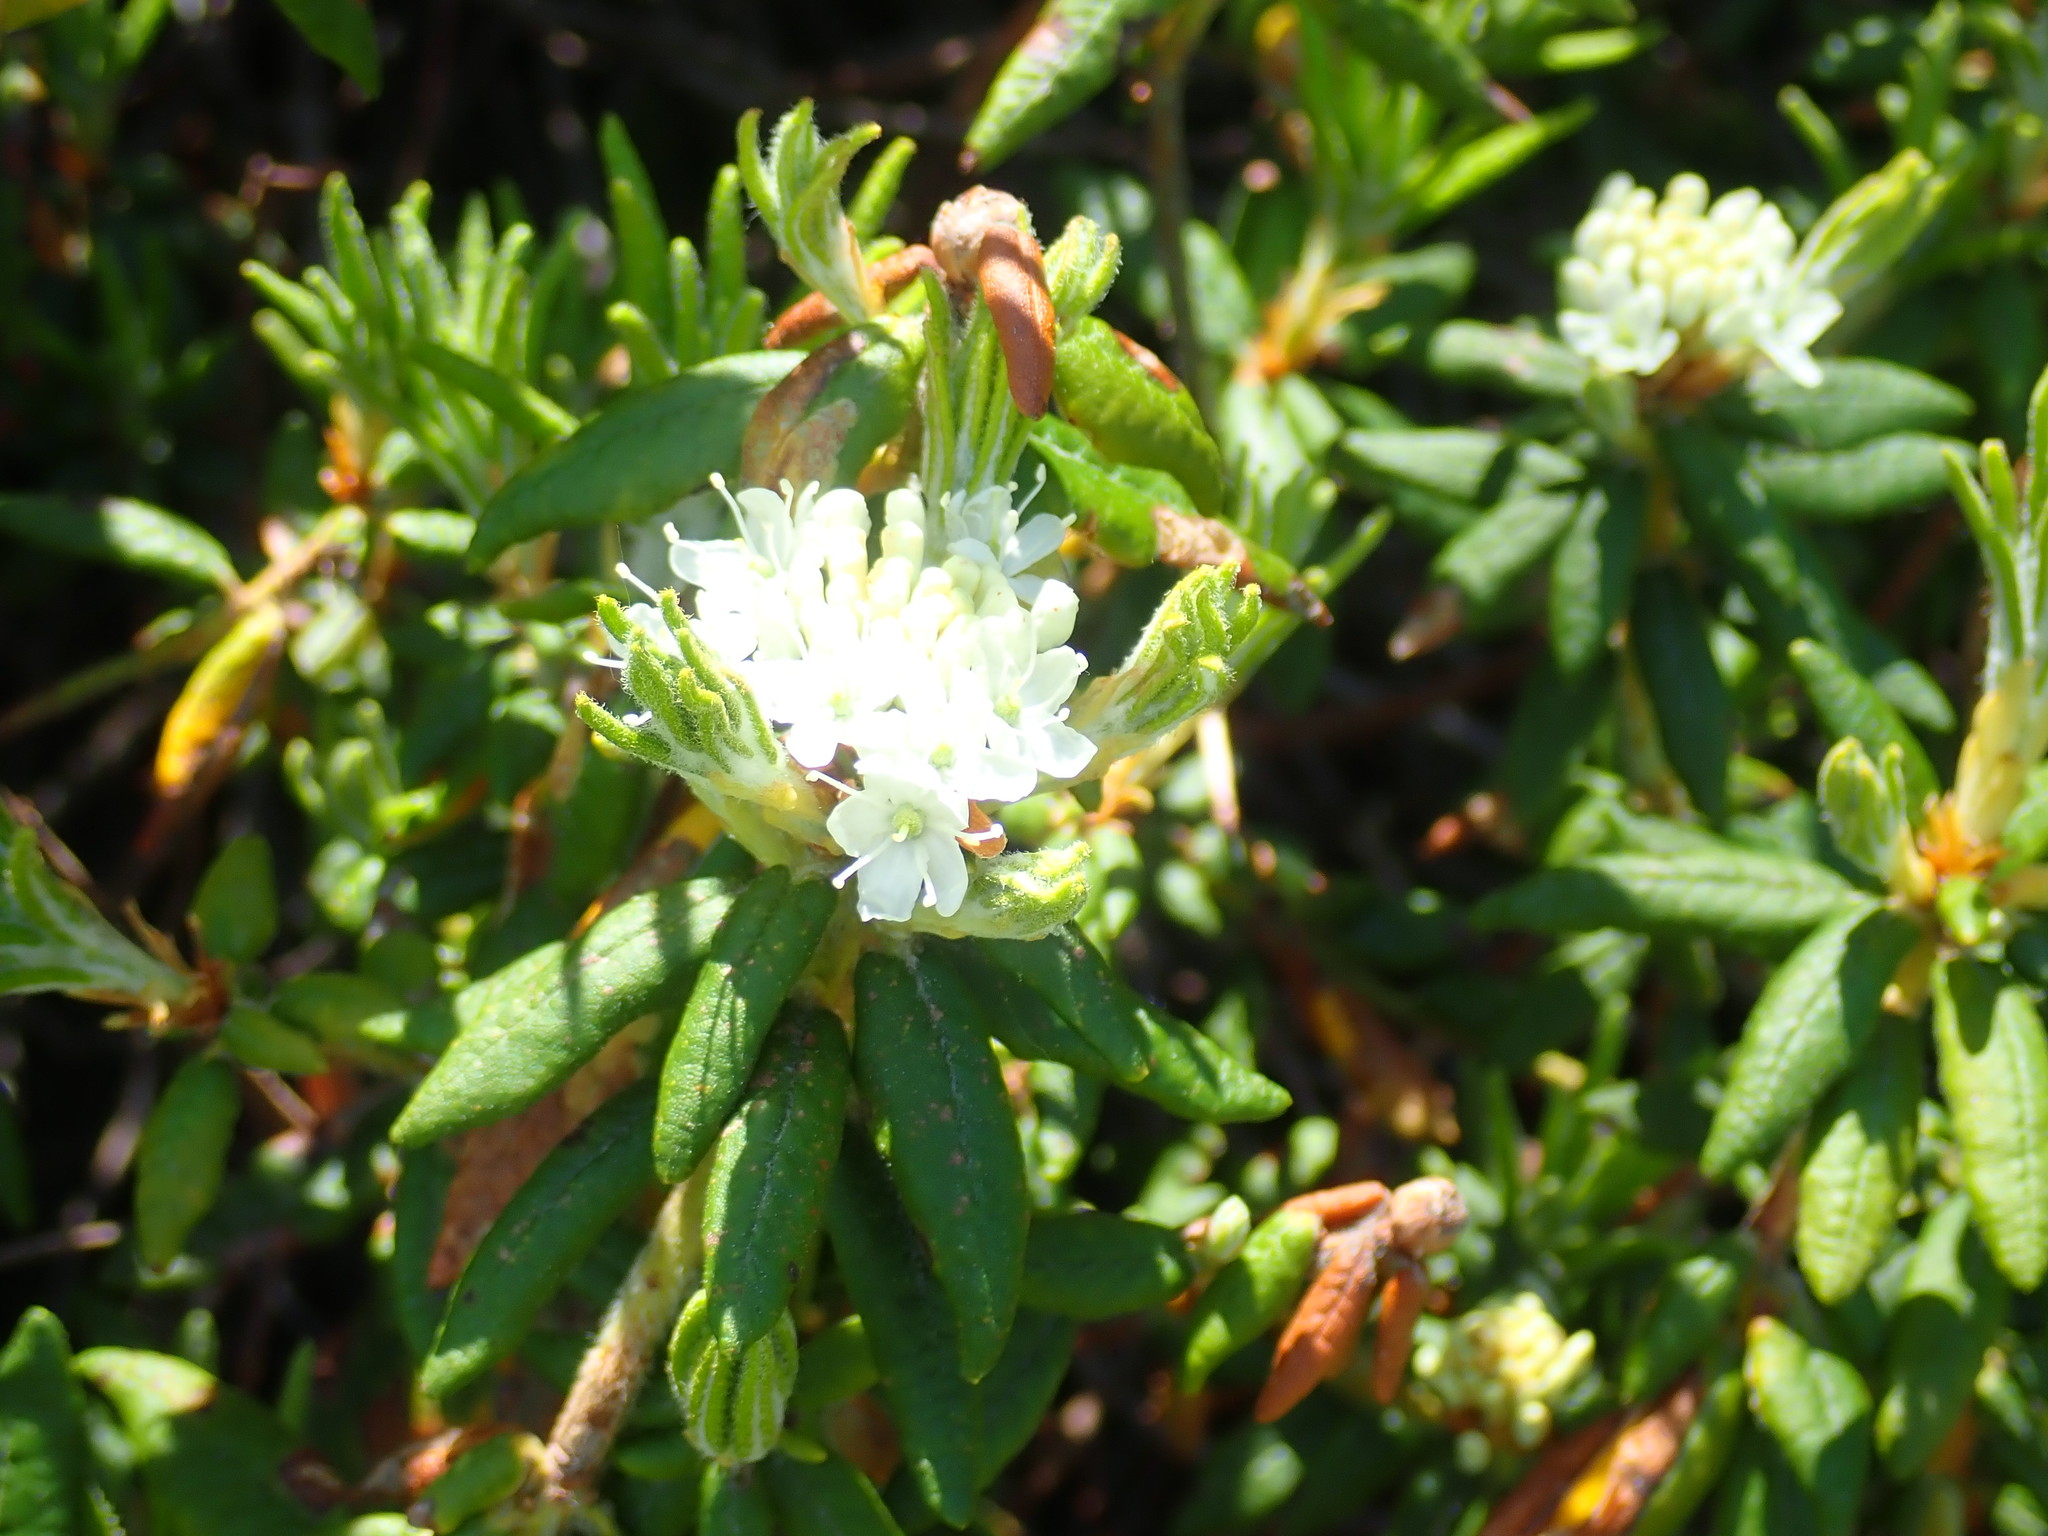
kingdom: Plantae
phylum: Tracheophyta
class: Magnoliopsida
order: Ericales
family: Ericaceae
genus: Rhododendron
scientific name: Rhododendron groenlandicum
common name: Bog labrador tea
